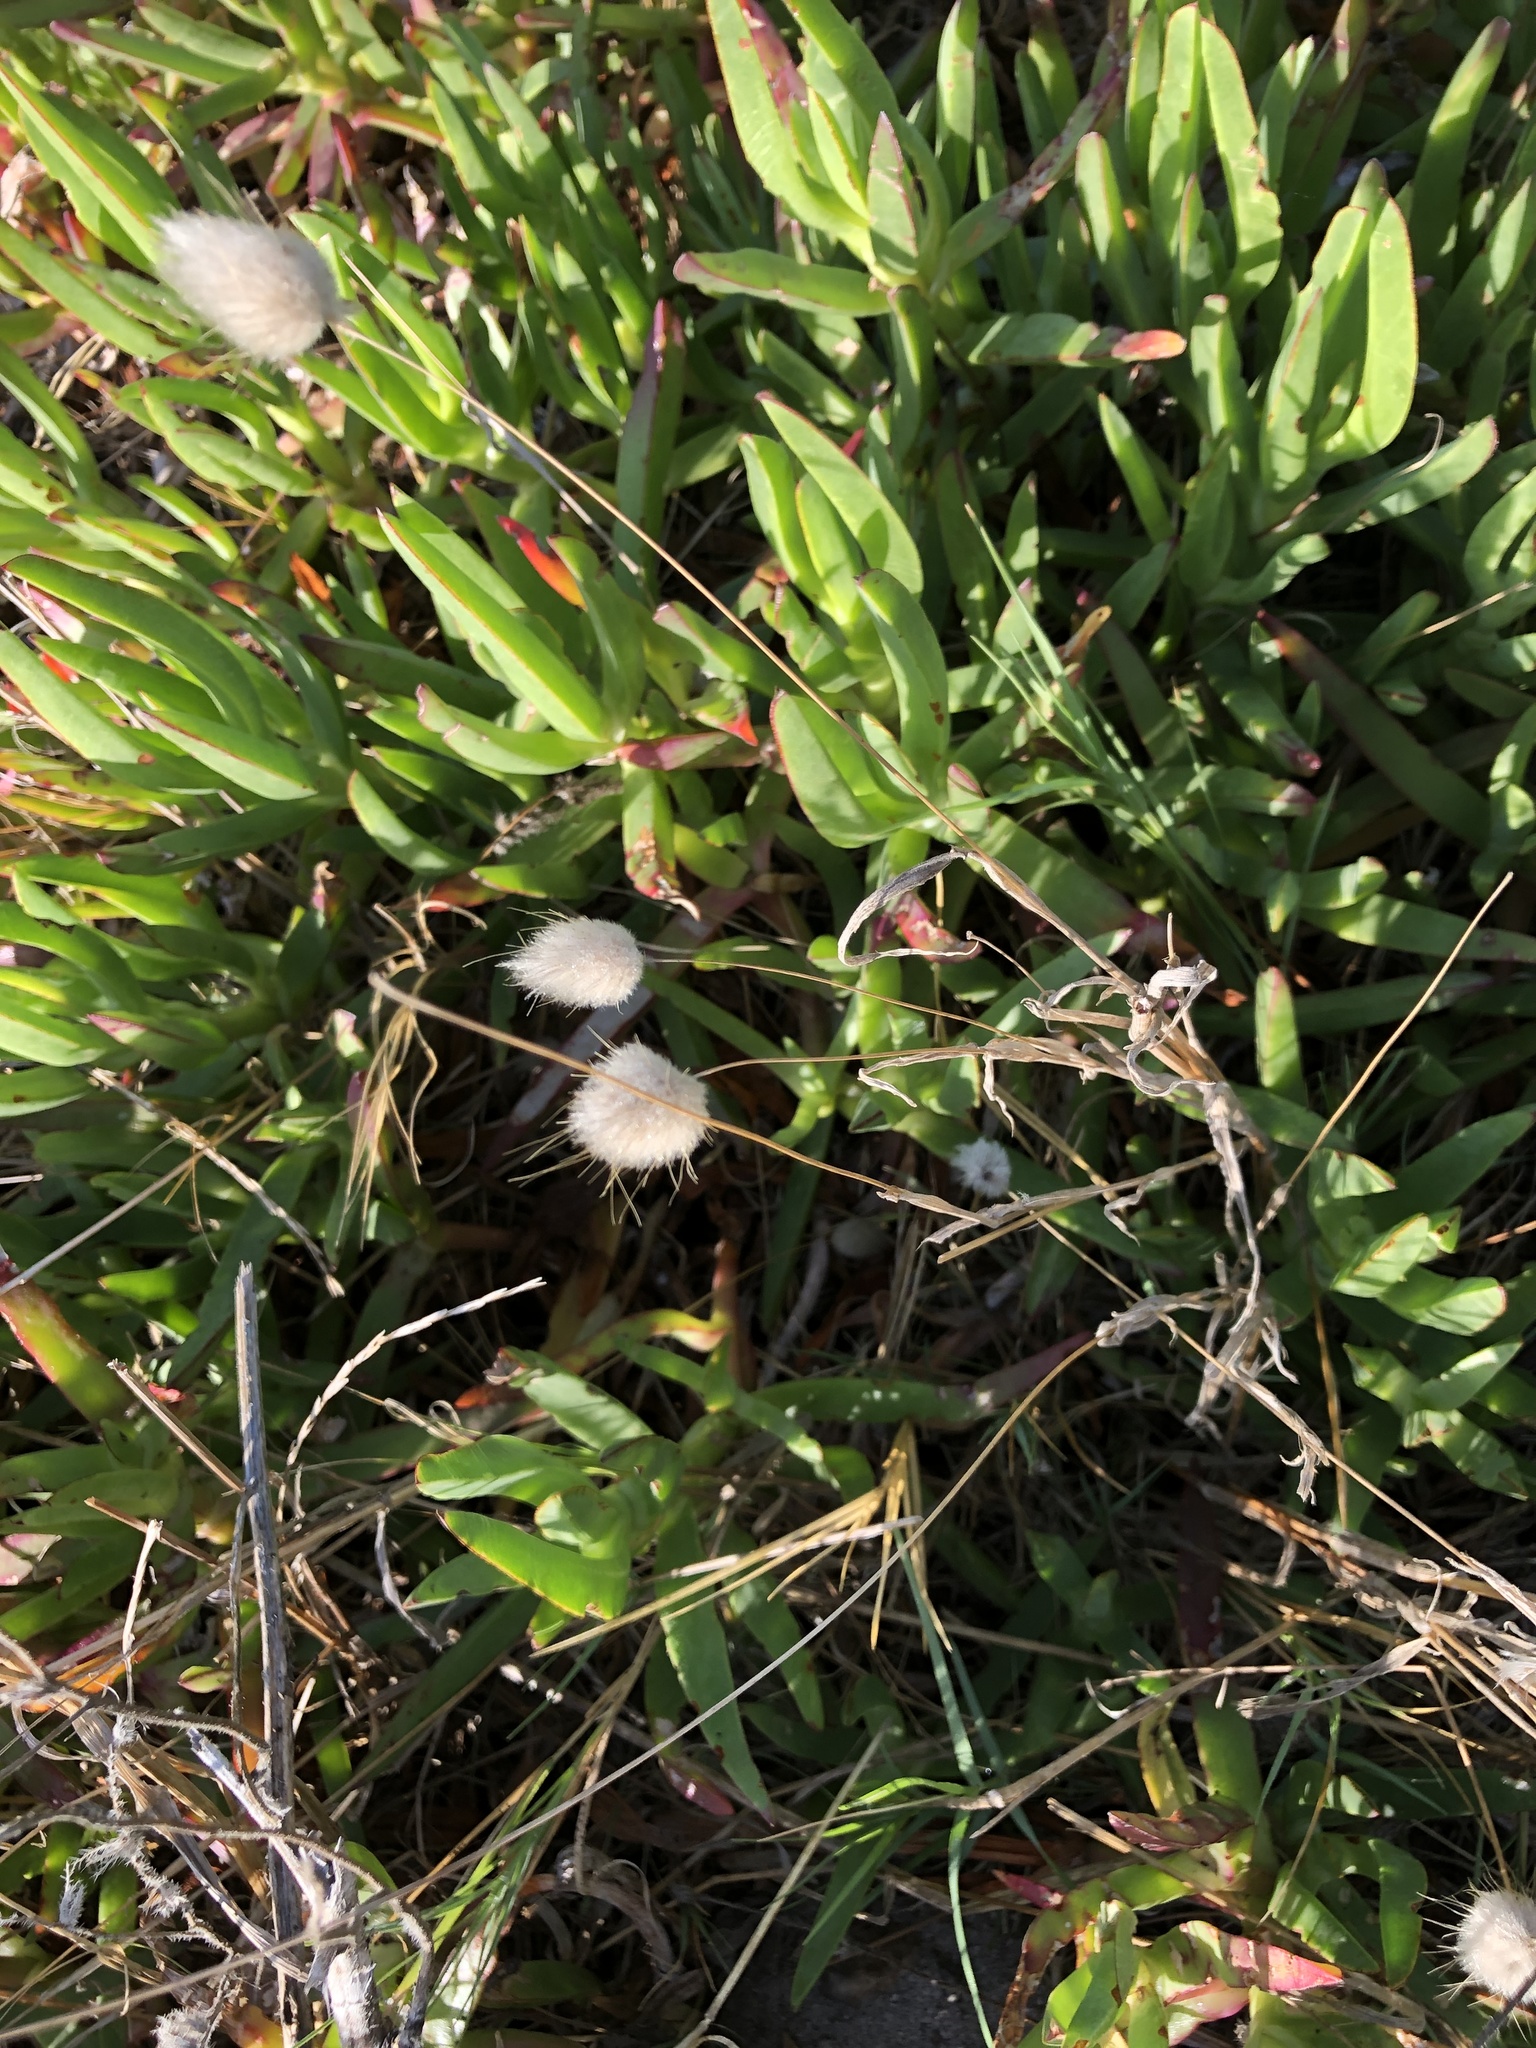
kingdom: Plantae
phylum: Tracheophyta
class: Liliopsida
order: Poales
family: Poaceae
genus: Lagurus
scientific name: Lagurus ovatus
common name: Hare's-tail
